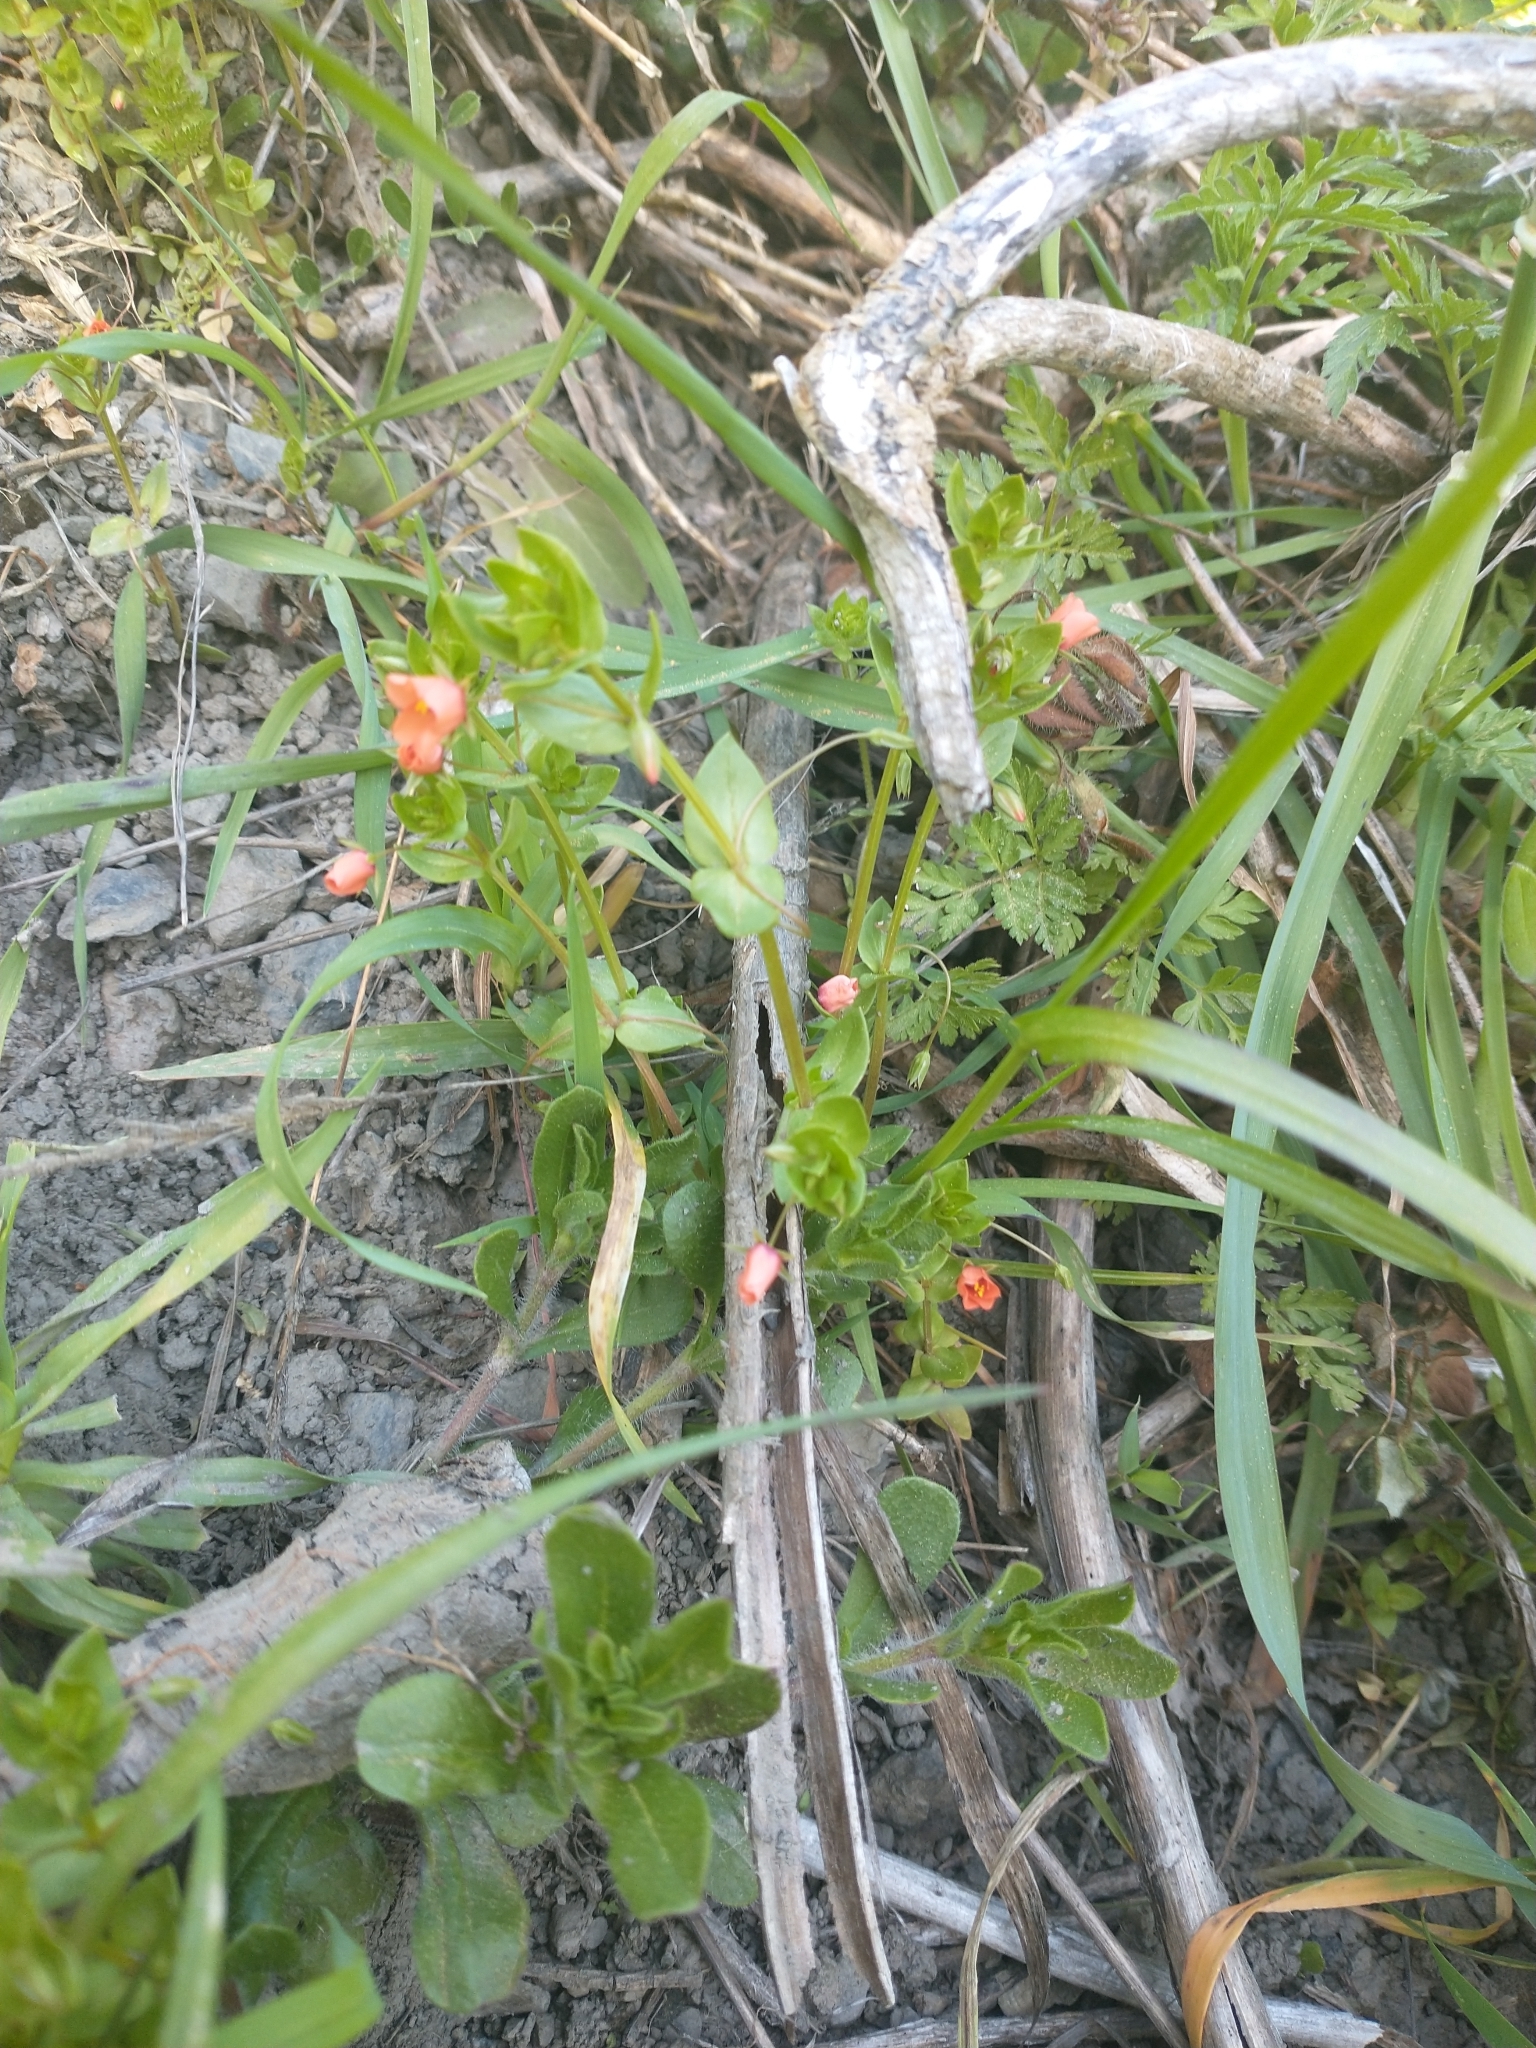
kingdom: Plantae
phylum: Tracheophyta
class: Magnoliopsida
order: Ericales
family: Primulaceae
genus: Lysimachia
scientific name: Lysimachia arvensis
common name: Scarlet pimpernel
